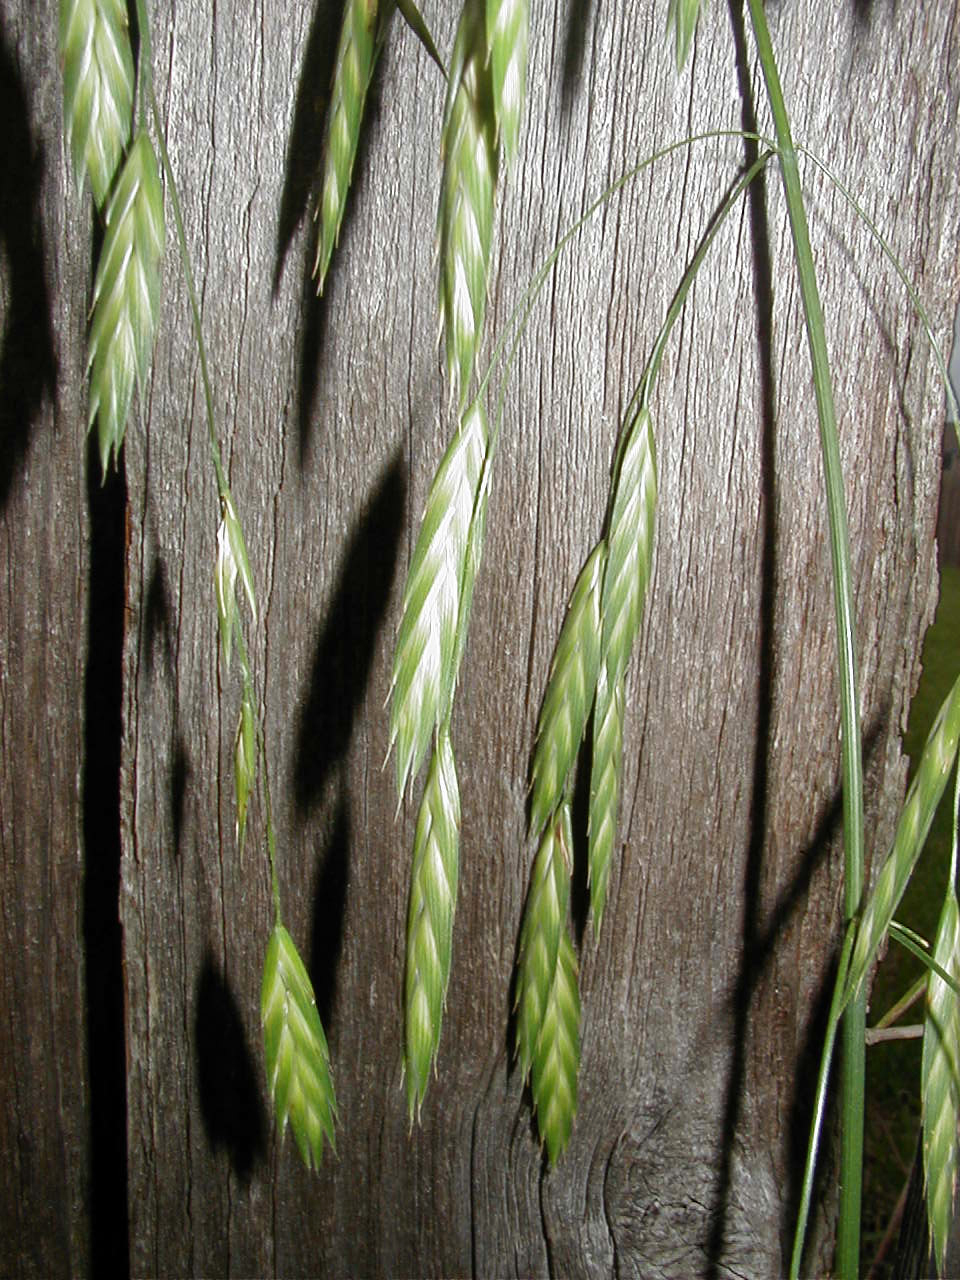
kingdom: Plantae
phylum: Tracheophyta
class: Liliopsida
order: Poales
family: Poaceae
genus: Bromus
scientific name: Bromus catharticus
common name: Rescuegrass
